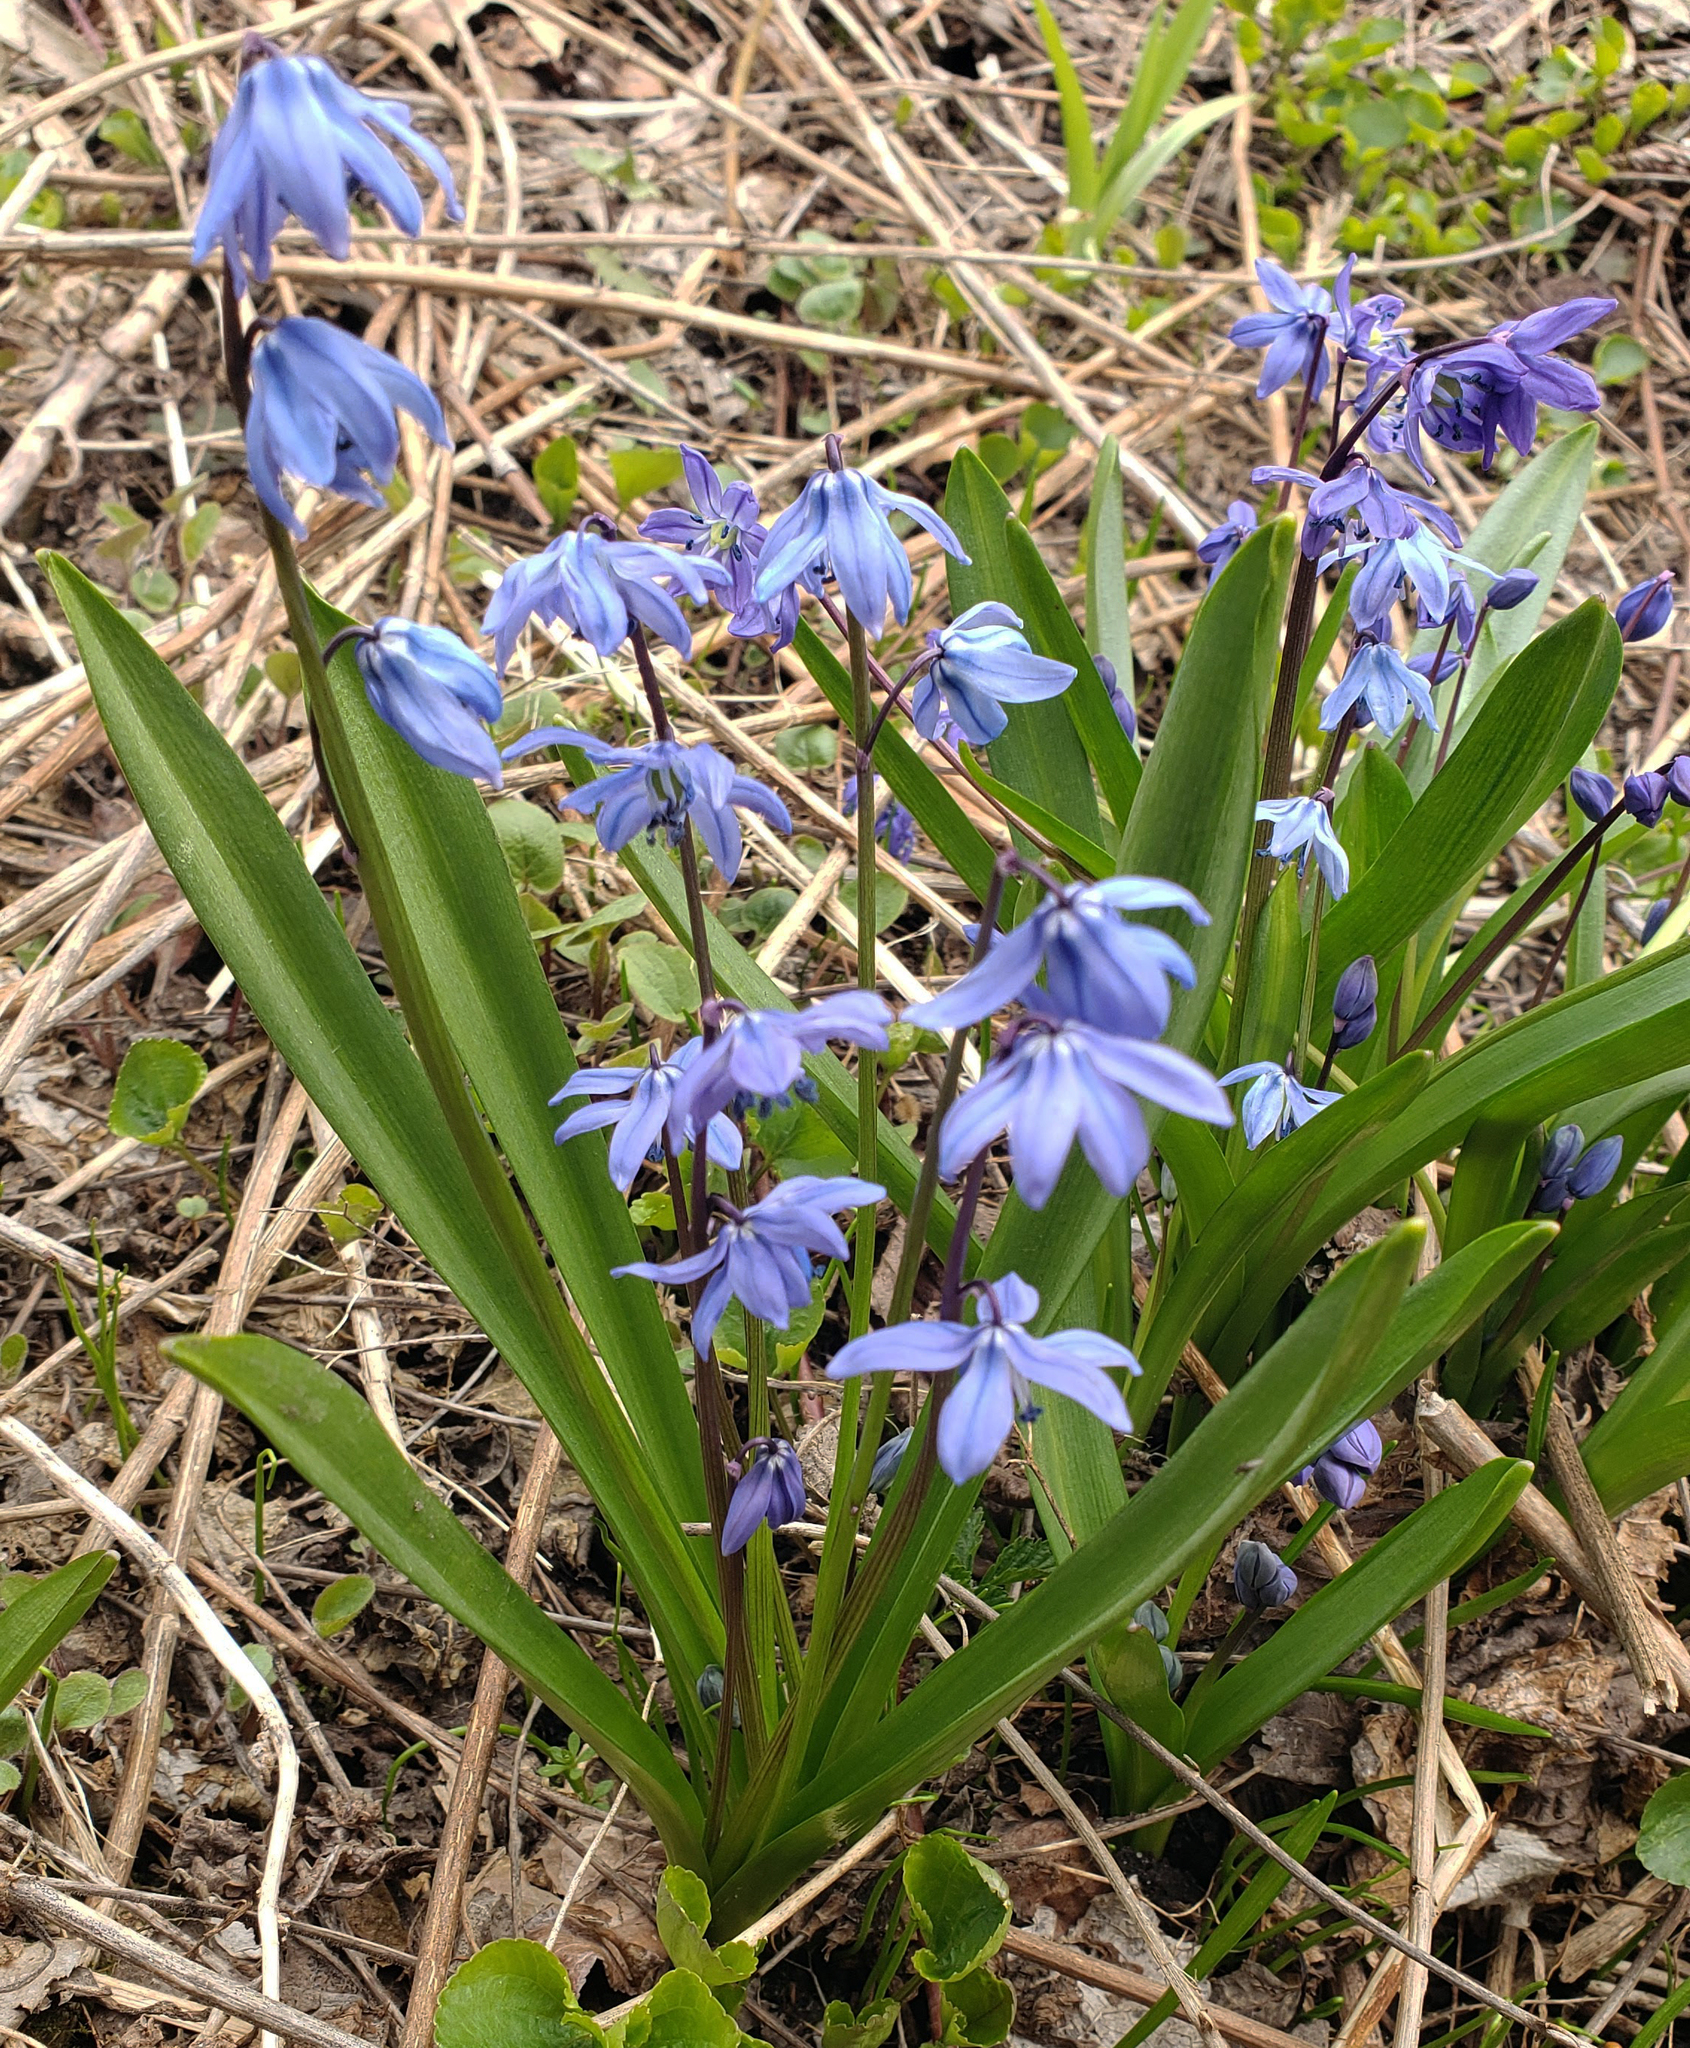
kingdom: Plantae
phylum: Tracheophyta
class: Liliopsida
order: Asparagales
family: Asparagaceae
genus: Scilla
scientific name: Scilla siberica
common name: Siberian squill
